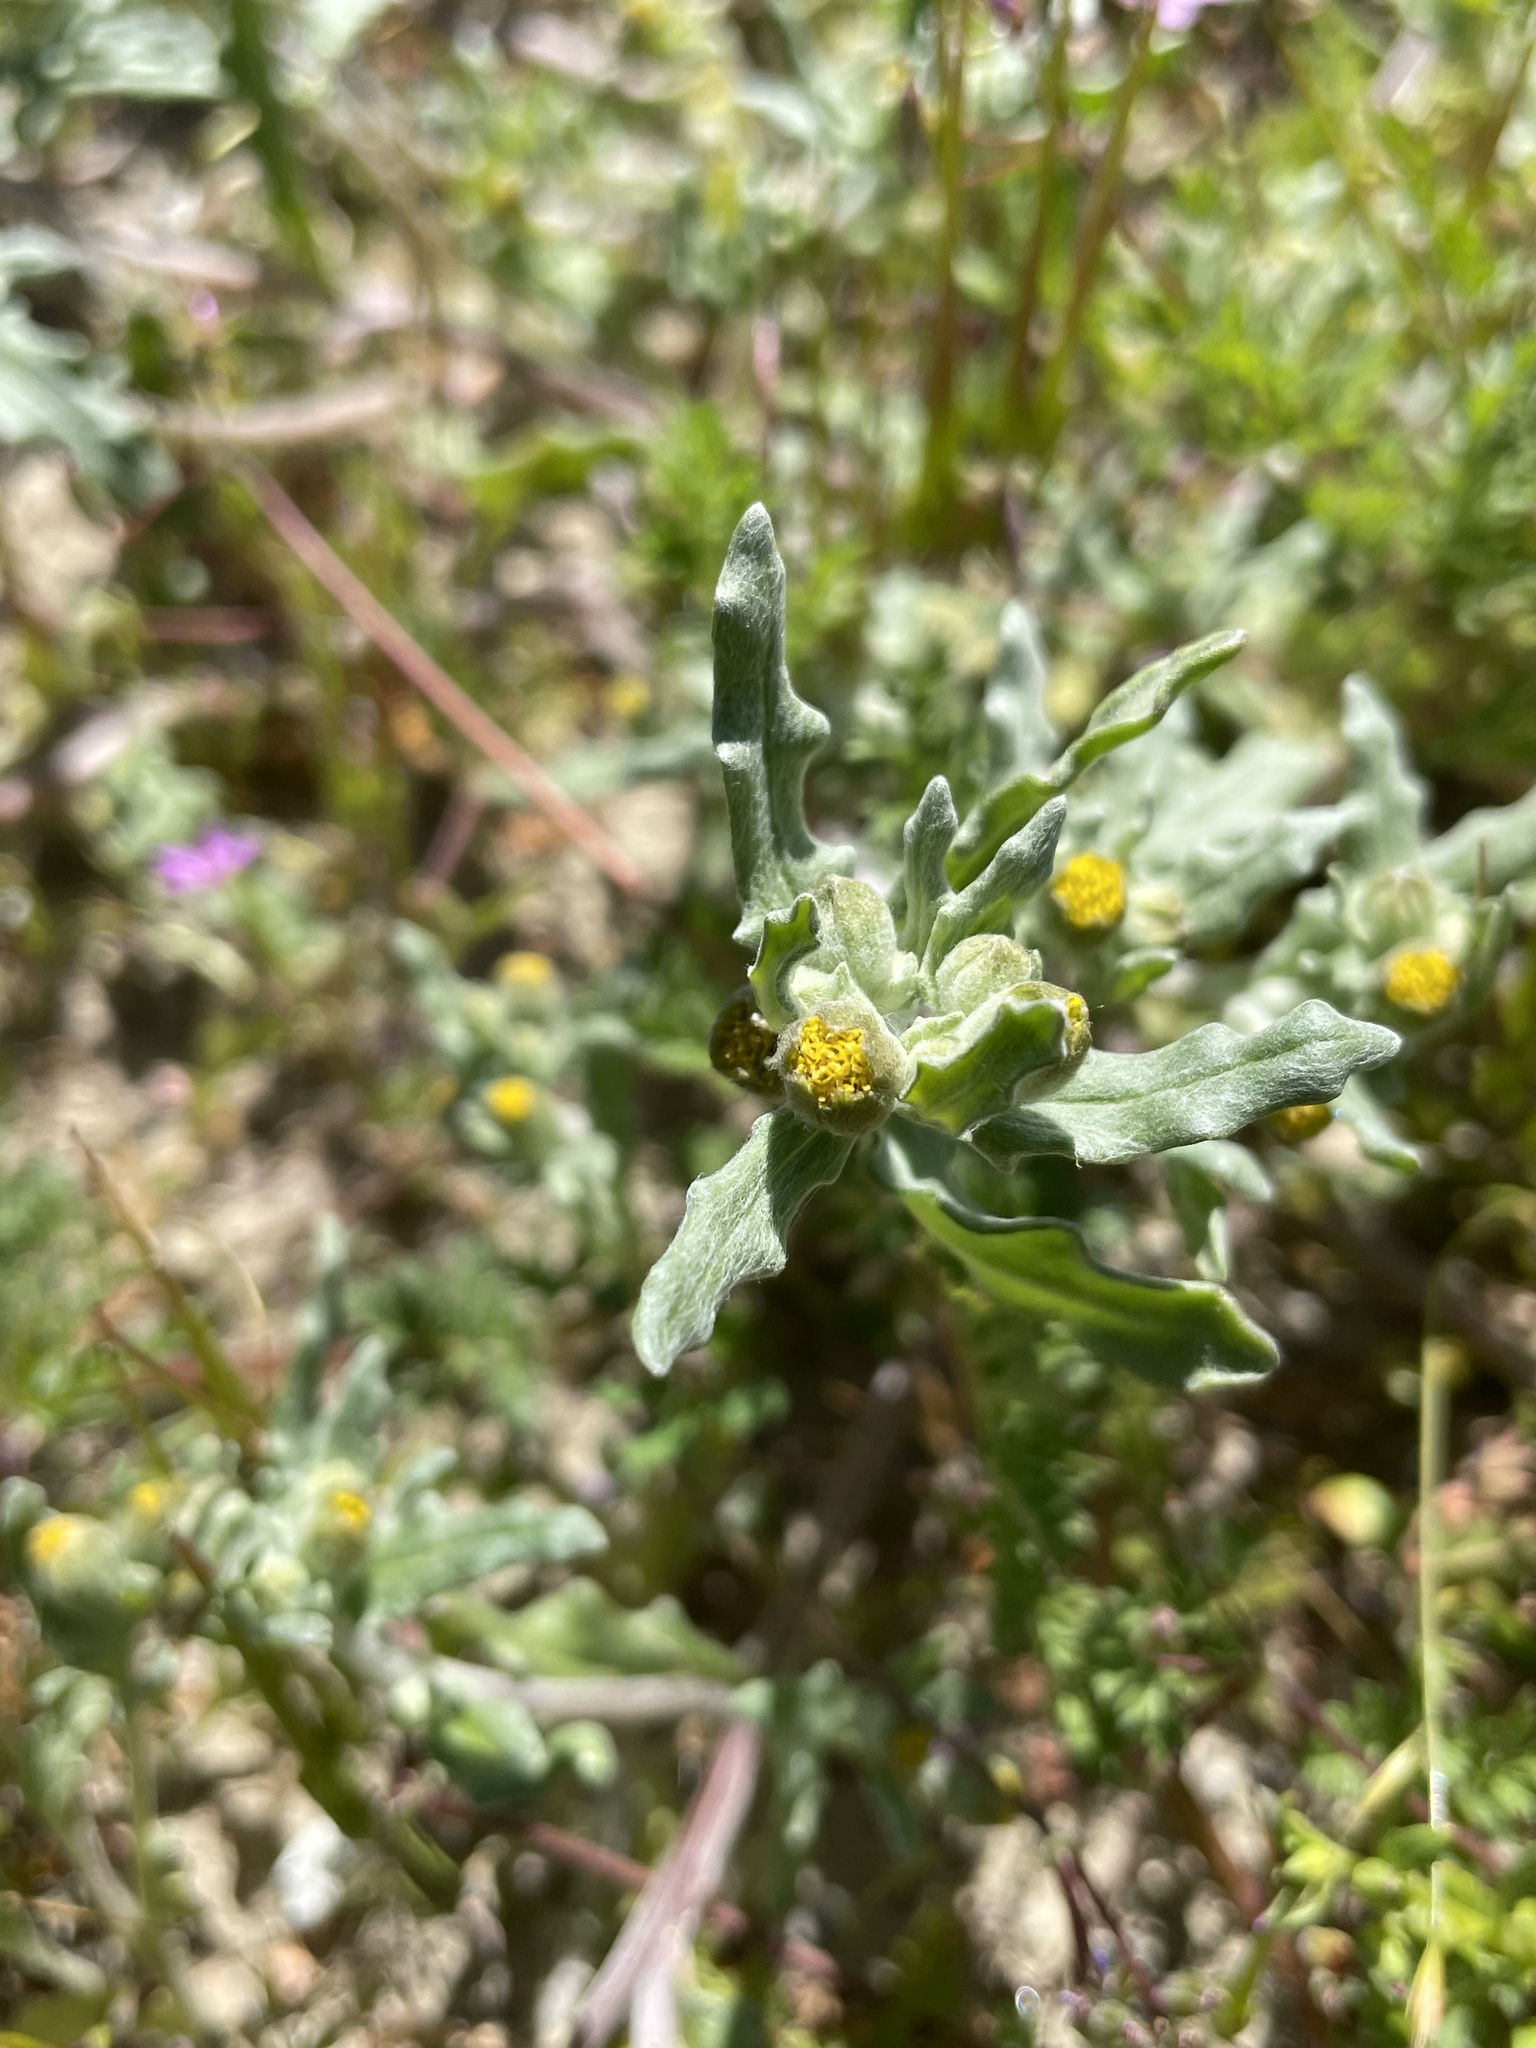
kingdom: Plantae
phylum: Tracheophyta
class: Magnoliopsida
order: Asterales
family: Asteraceae
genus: Monolopia
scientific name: Monolopia congdonii
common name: San joaquin woolly-threads
